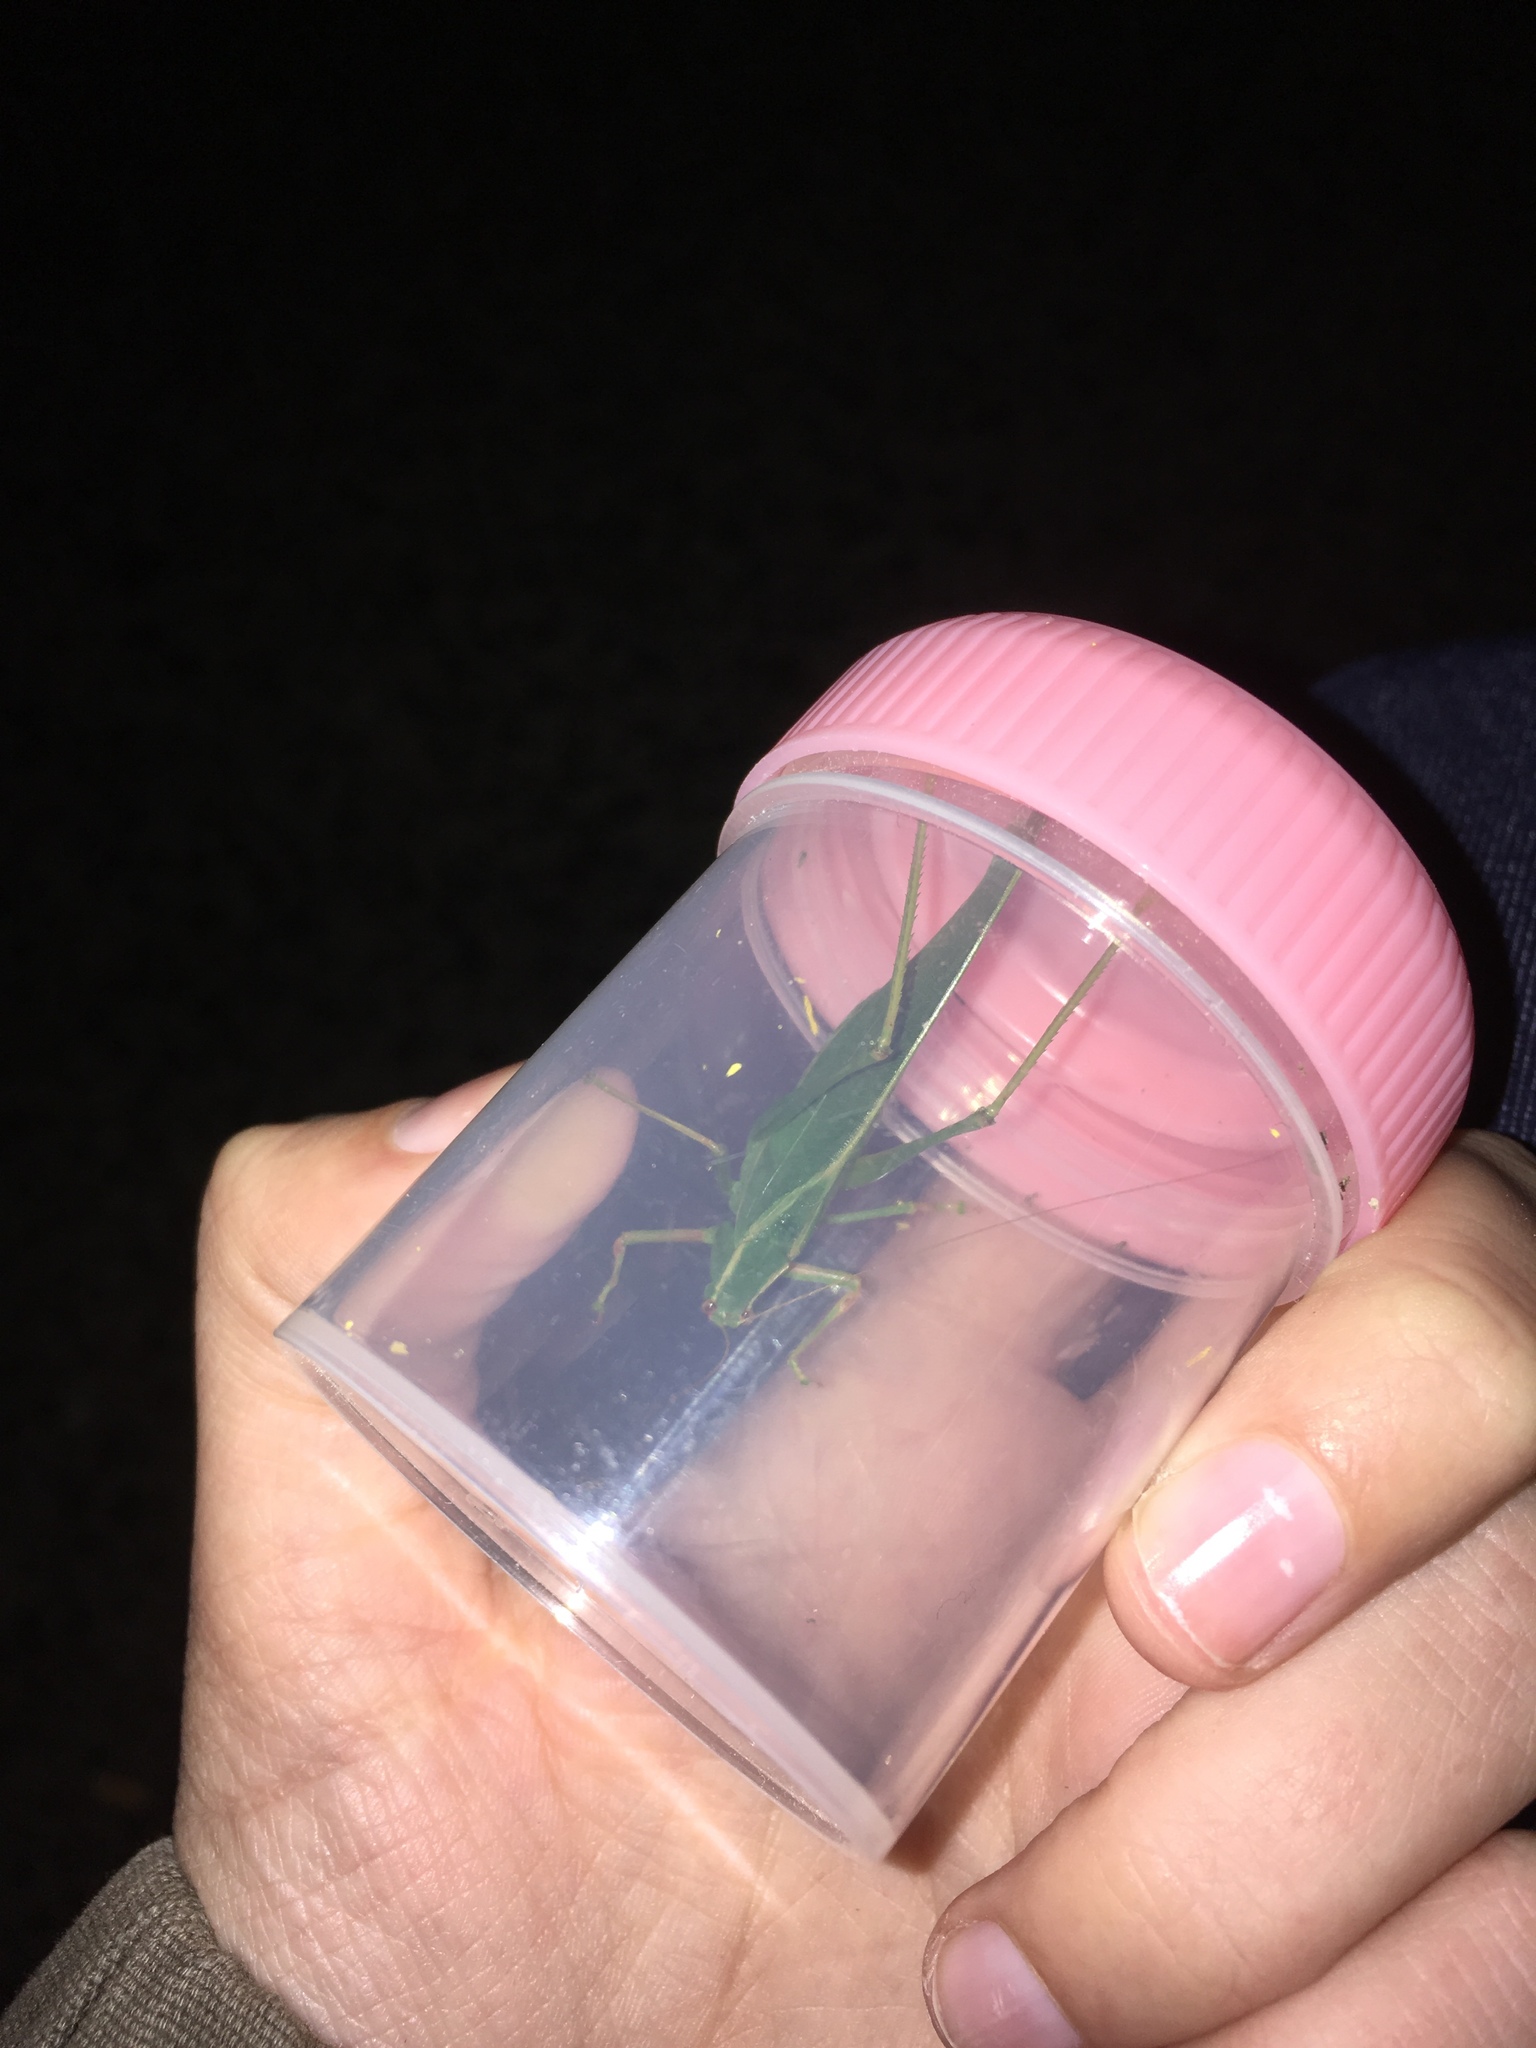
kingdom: Animalia
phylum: Arthropoda
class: Insecta
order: Orthoptera
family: Tettigoniidae
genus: Caedicia
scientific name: Caedicia simplex
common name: Common garden katydid
